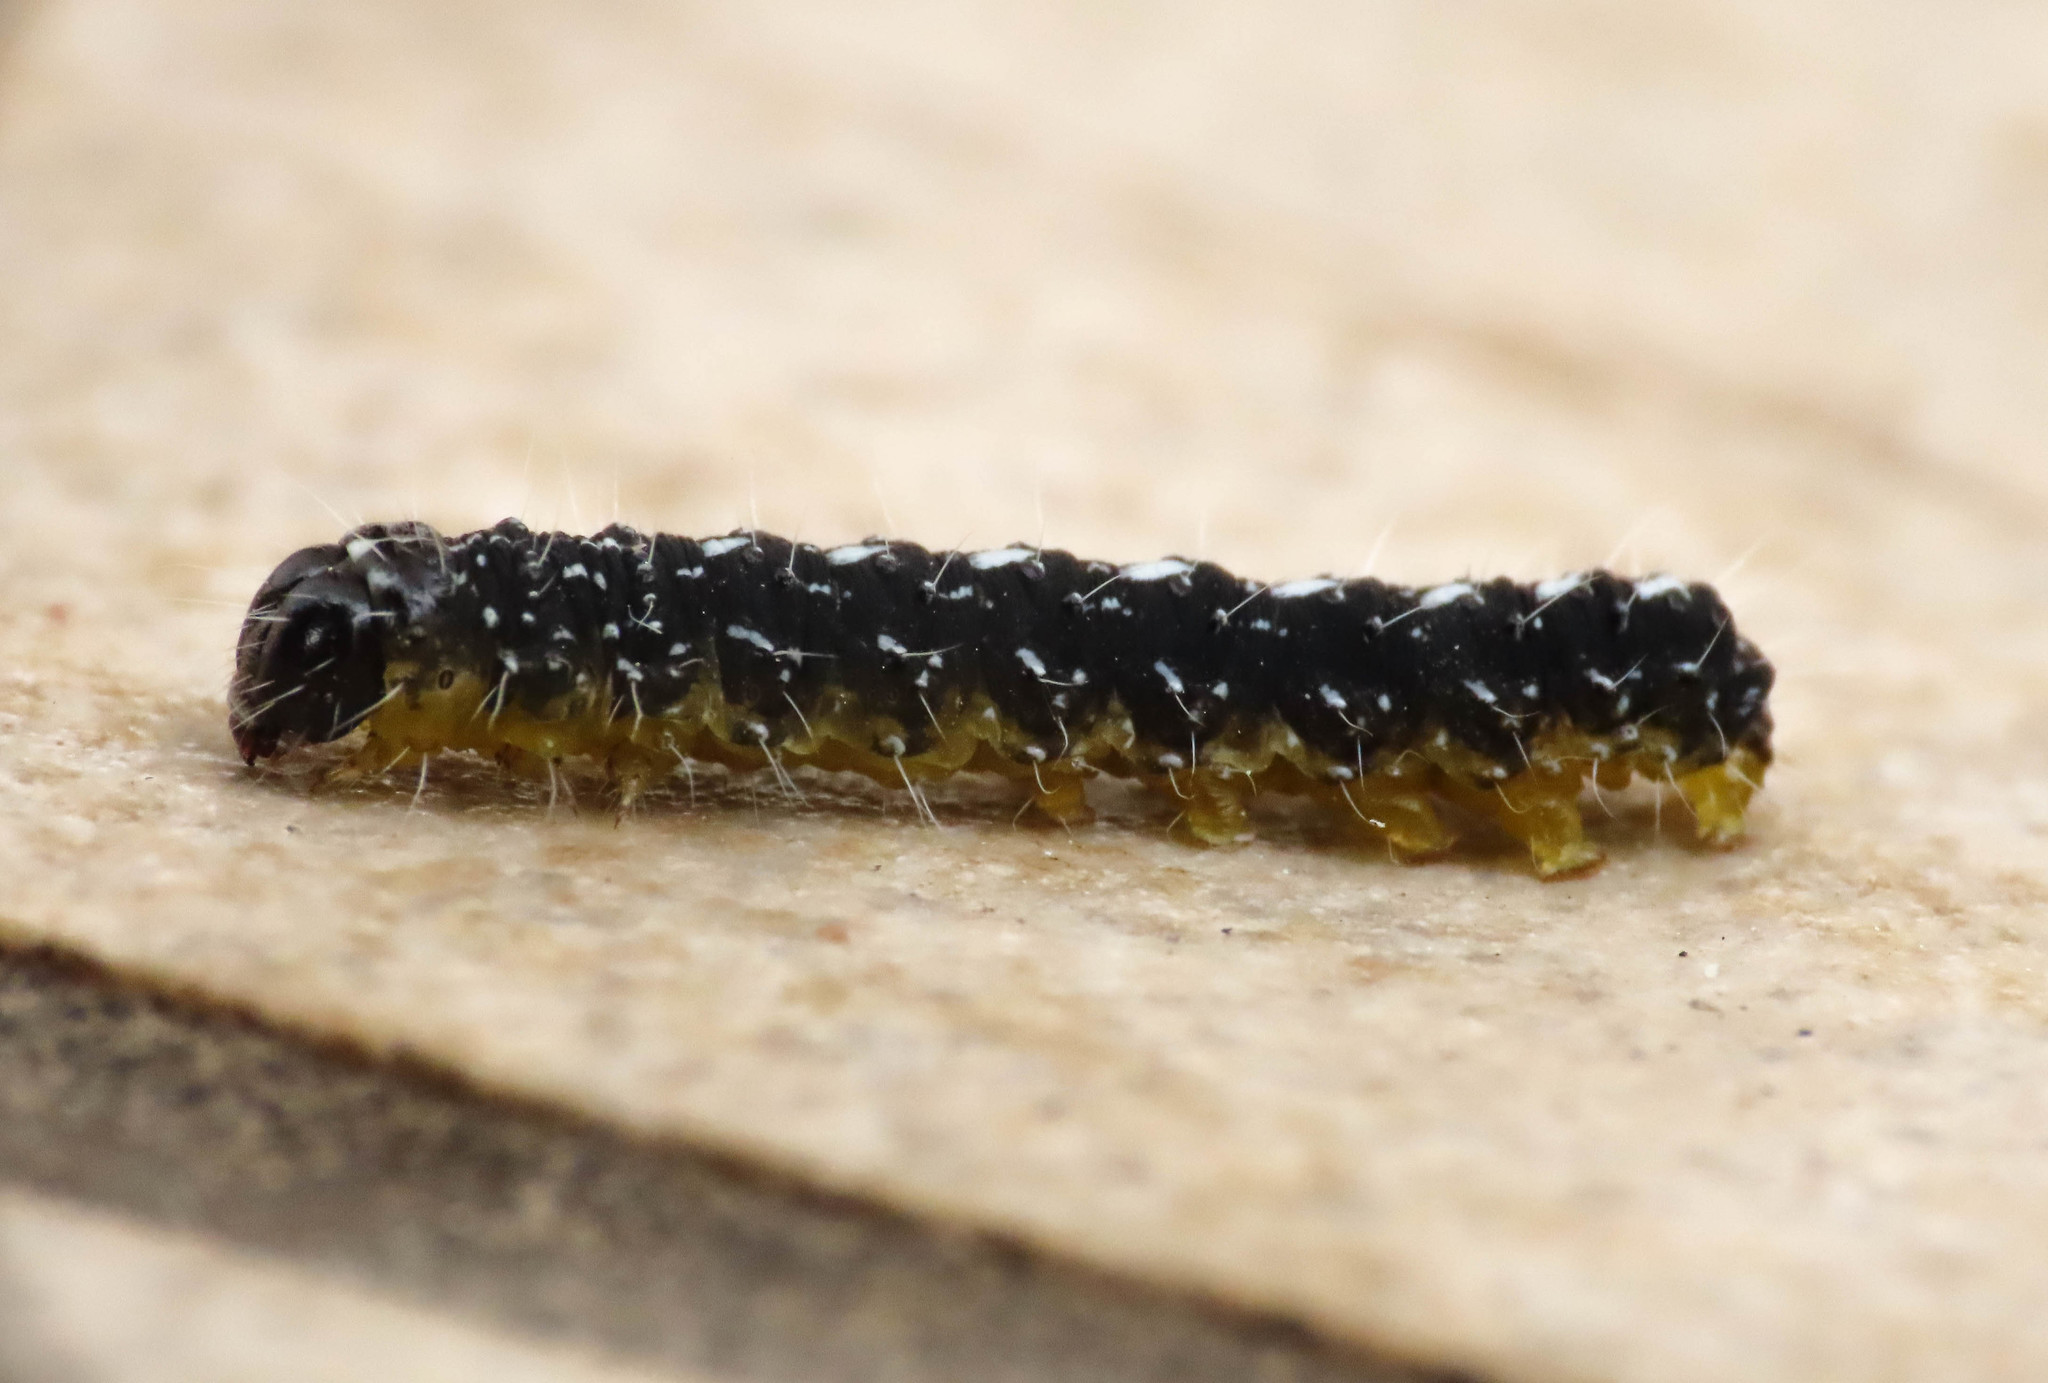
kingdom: Animalia
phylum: Arthropoda
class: Insecta
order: Lepidoptera
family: Noctuidae
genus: Nyctobrya
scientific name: Nyctobrya muralis
